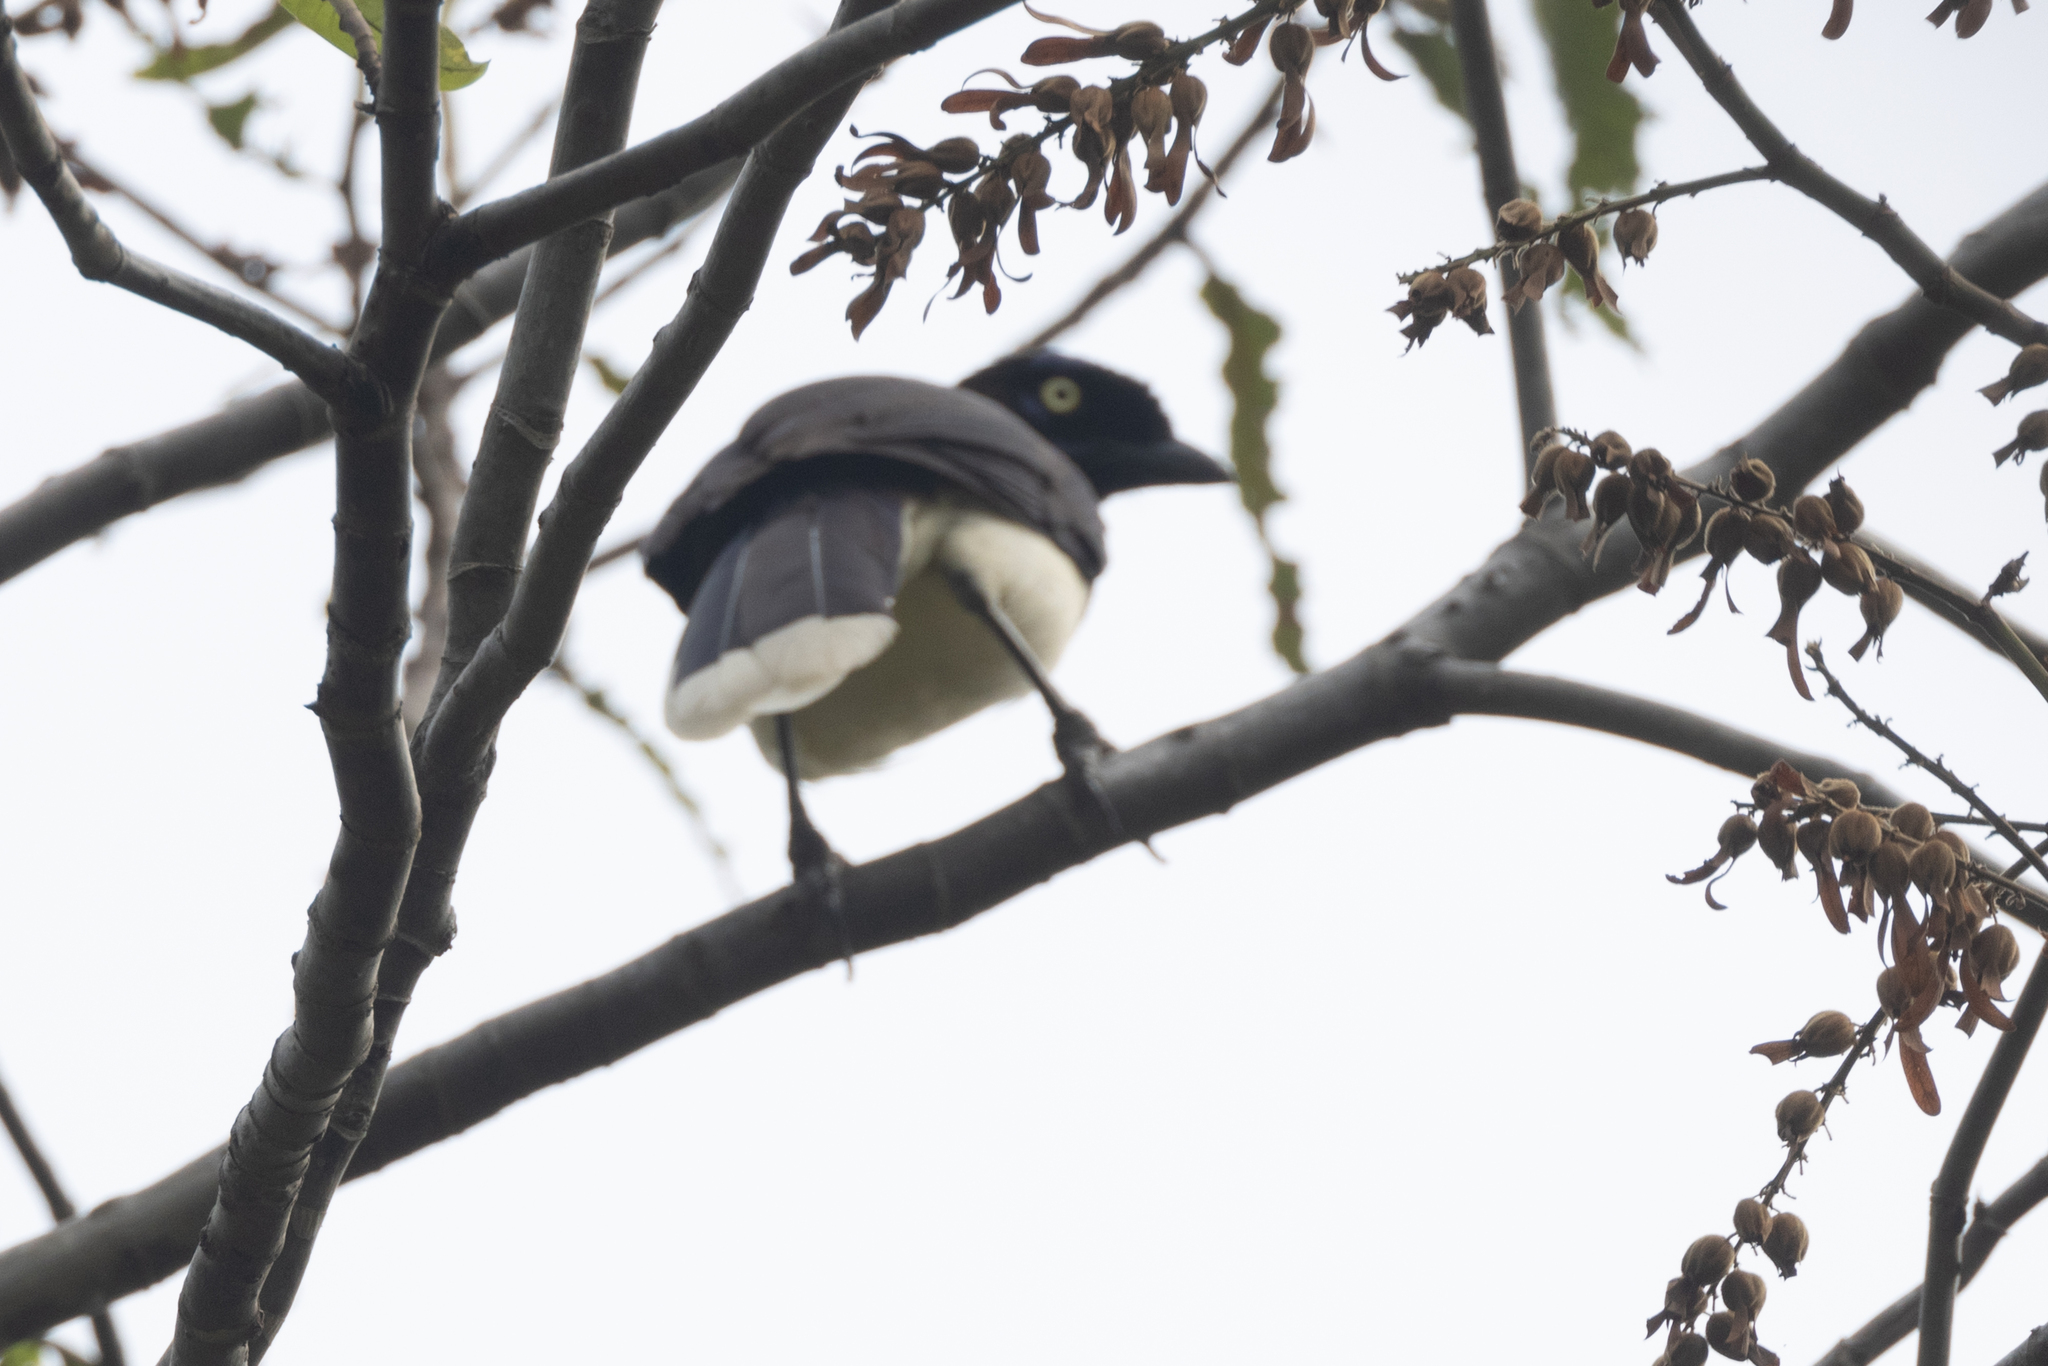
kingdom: Animalia
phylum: Chordata
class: Aves
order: Passeriformes
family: Corvidae
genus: Cyanocorax
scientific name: Cyanocorax affinis
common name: Black-chested jay
